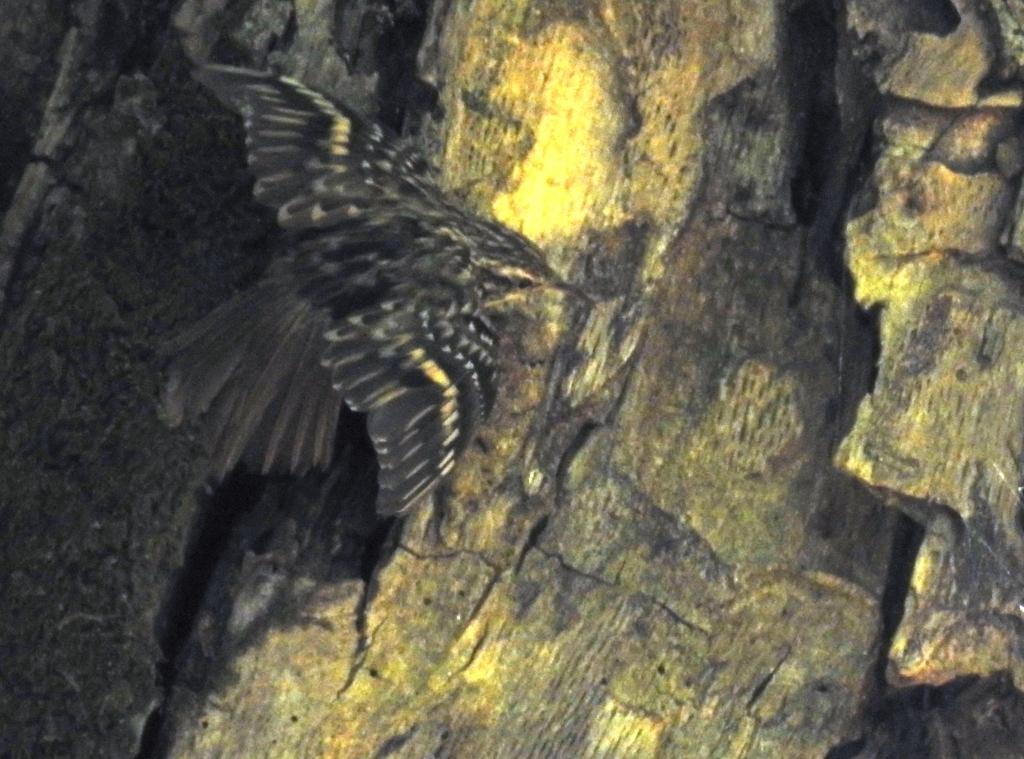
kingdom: Animalia
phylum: Chordata
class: Aves
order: Passeriformes
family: Certhiidae
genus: Certhia
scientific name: Certhia brachydactyla
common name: Short-toed treecreeper
